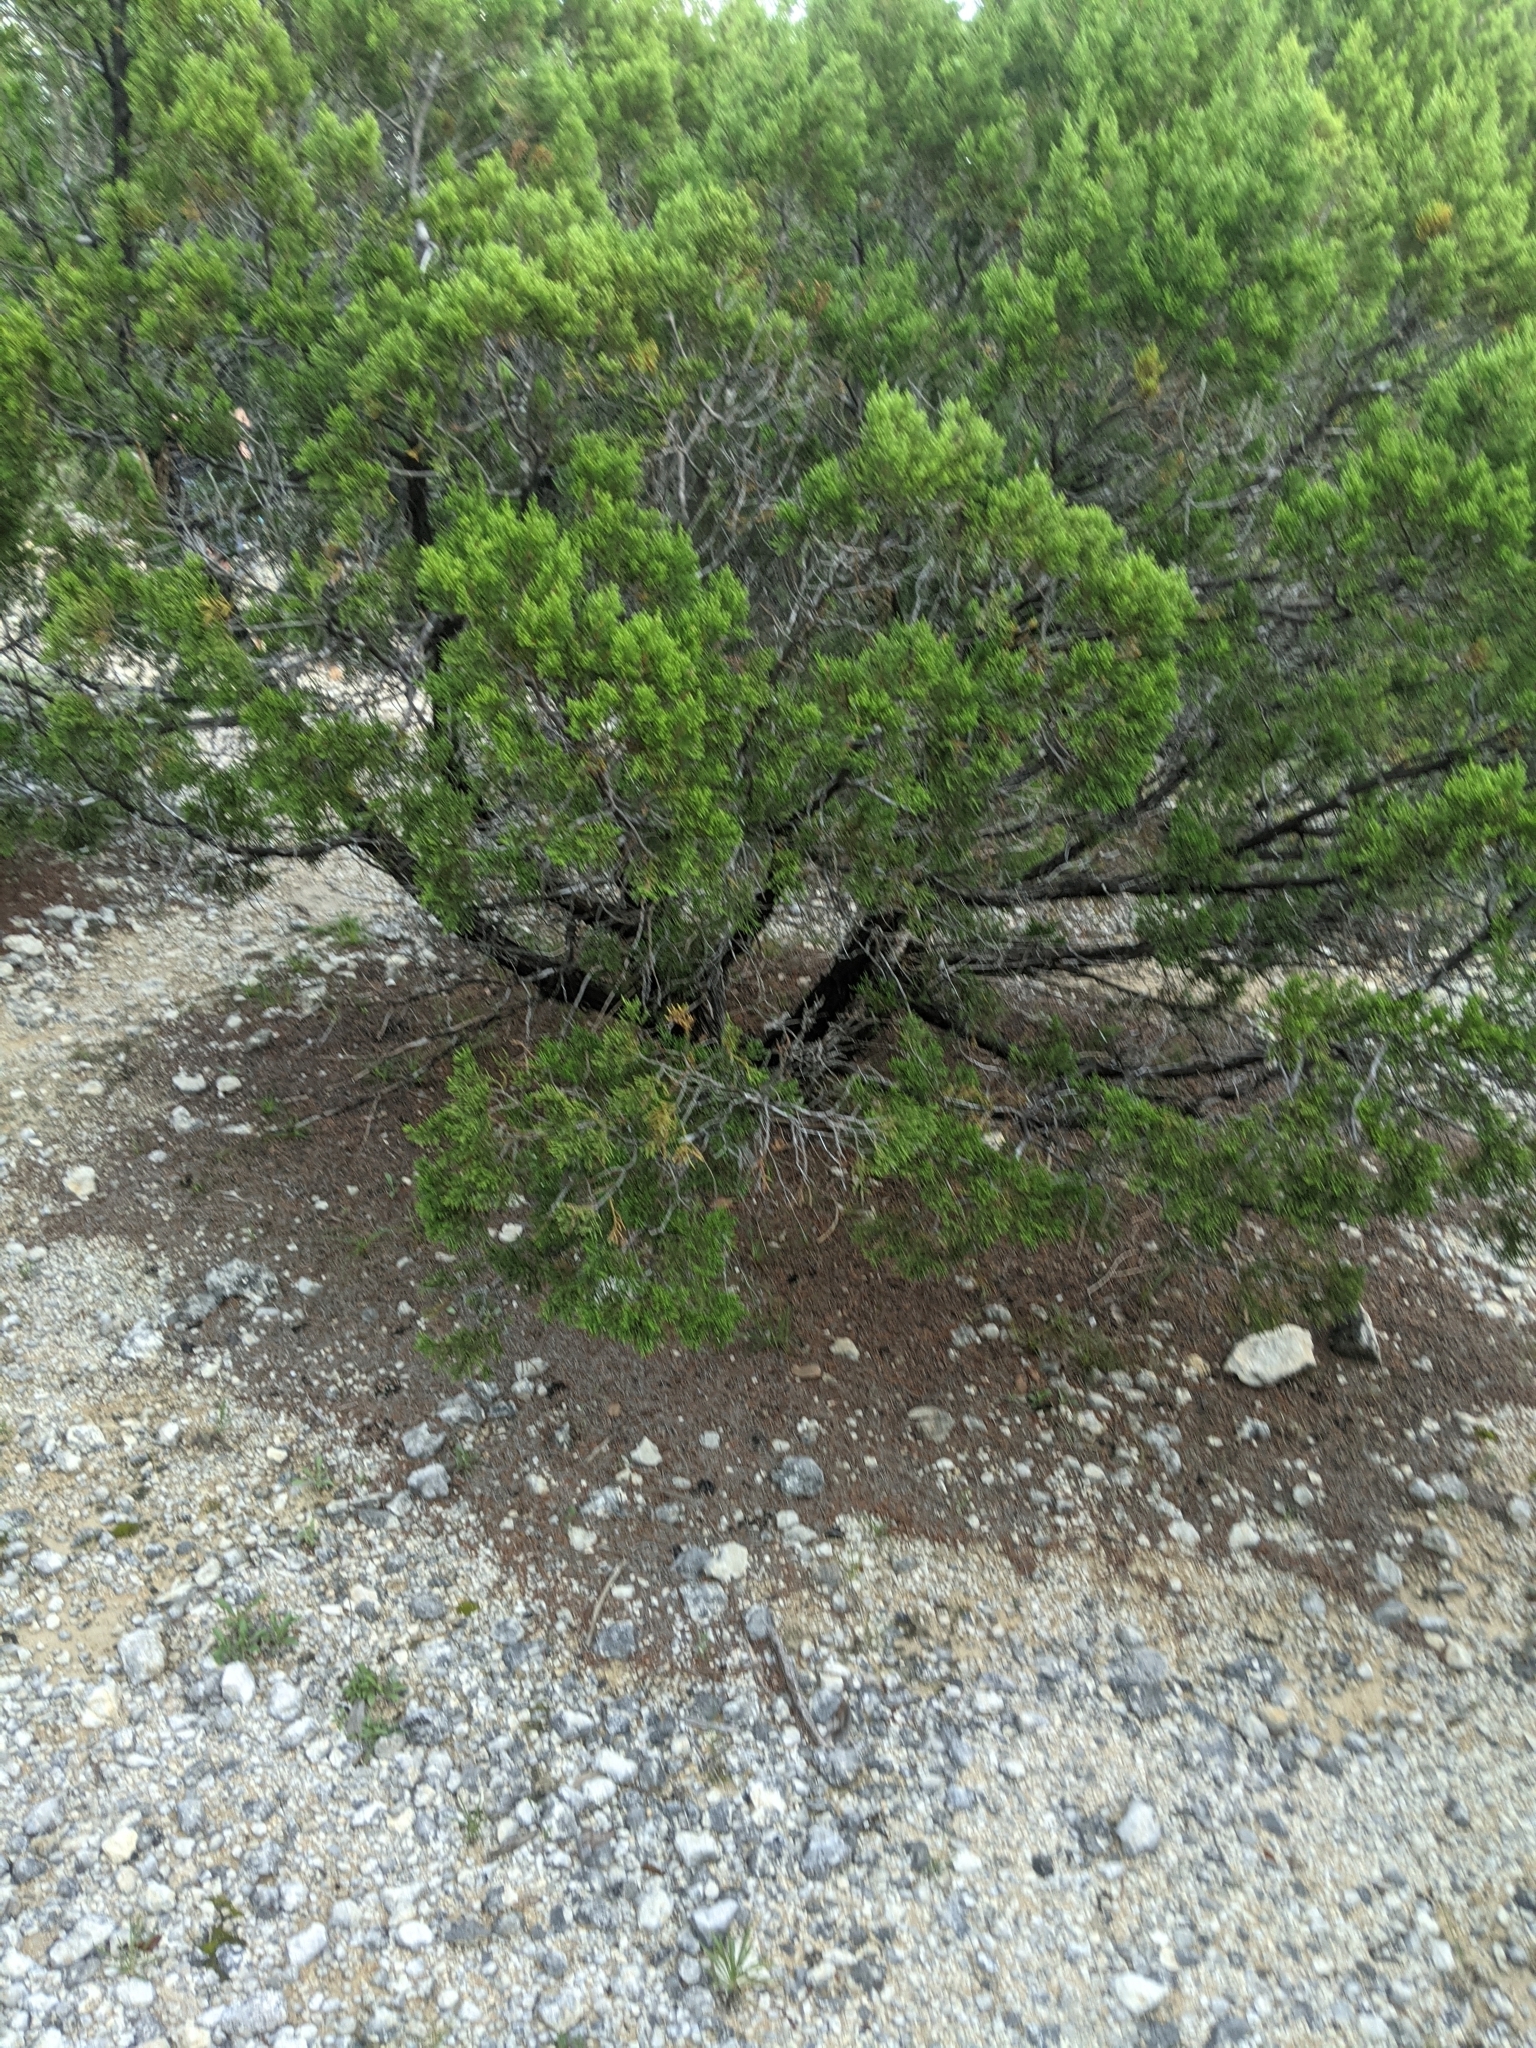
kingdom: Plantae
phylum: Tracheophyta
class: Pinopsida
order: Pinales
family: Cupressaceae
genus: Juniperus
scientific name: Juniperus ashei
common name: Mexican juniper
